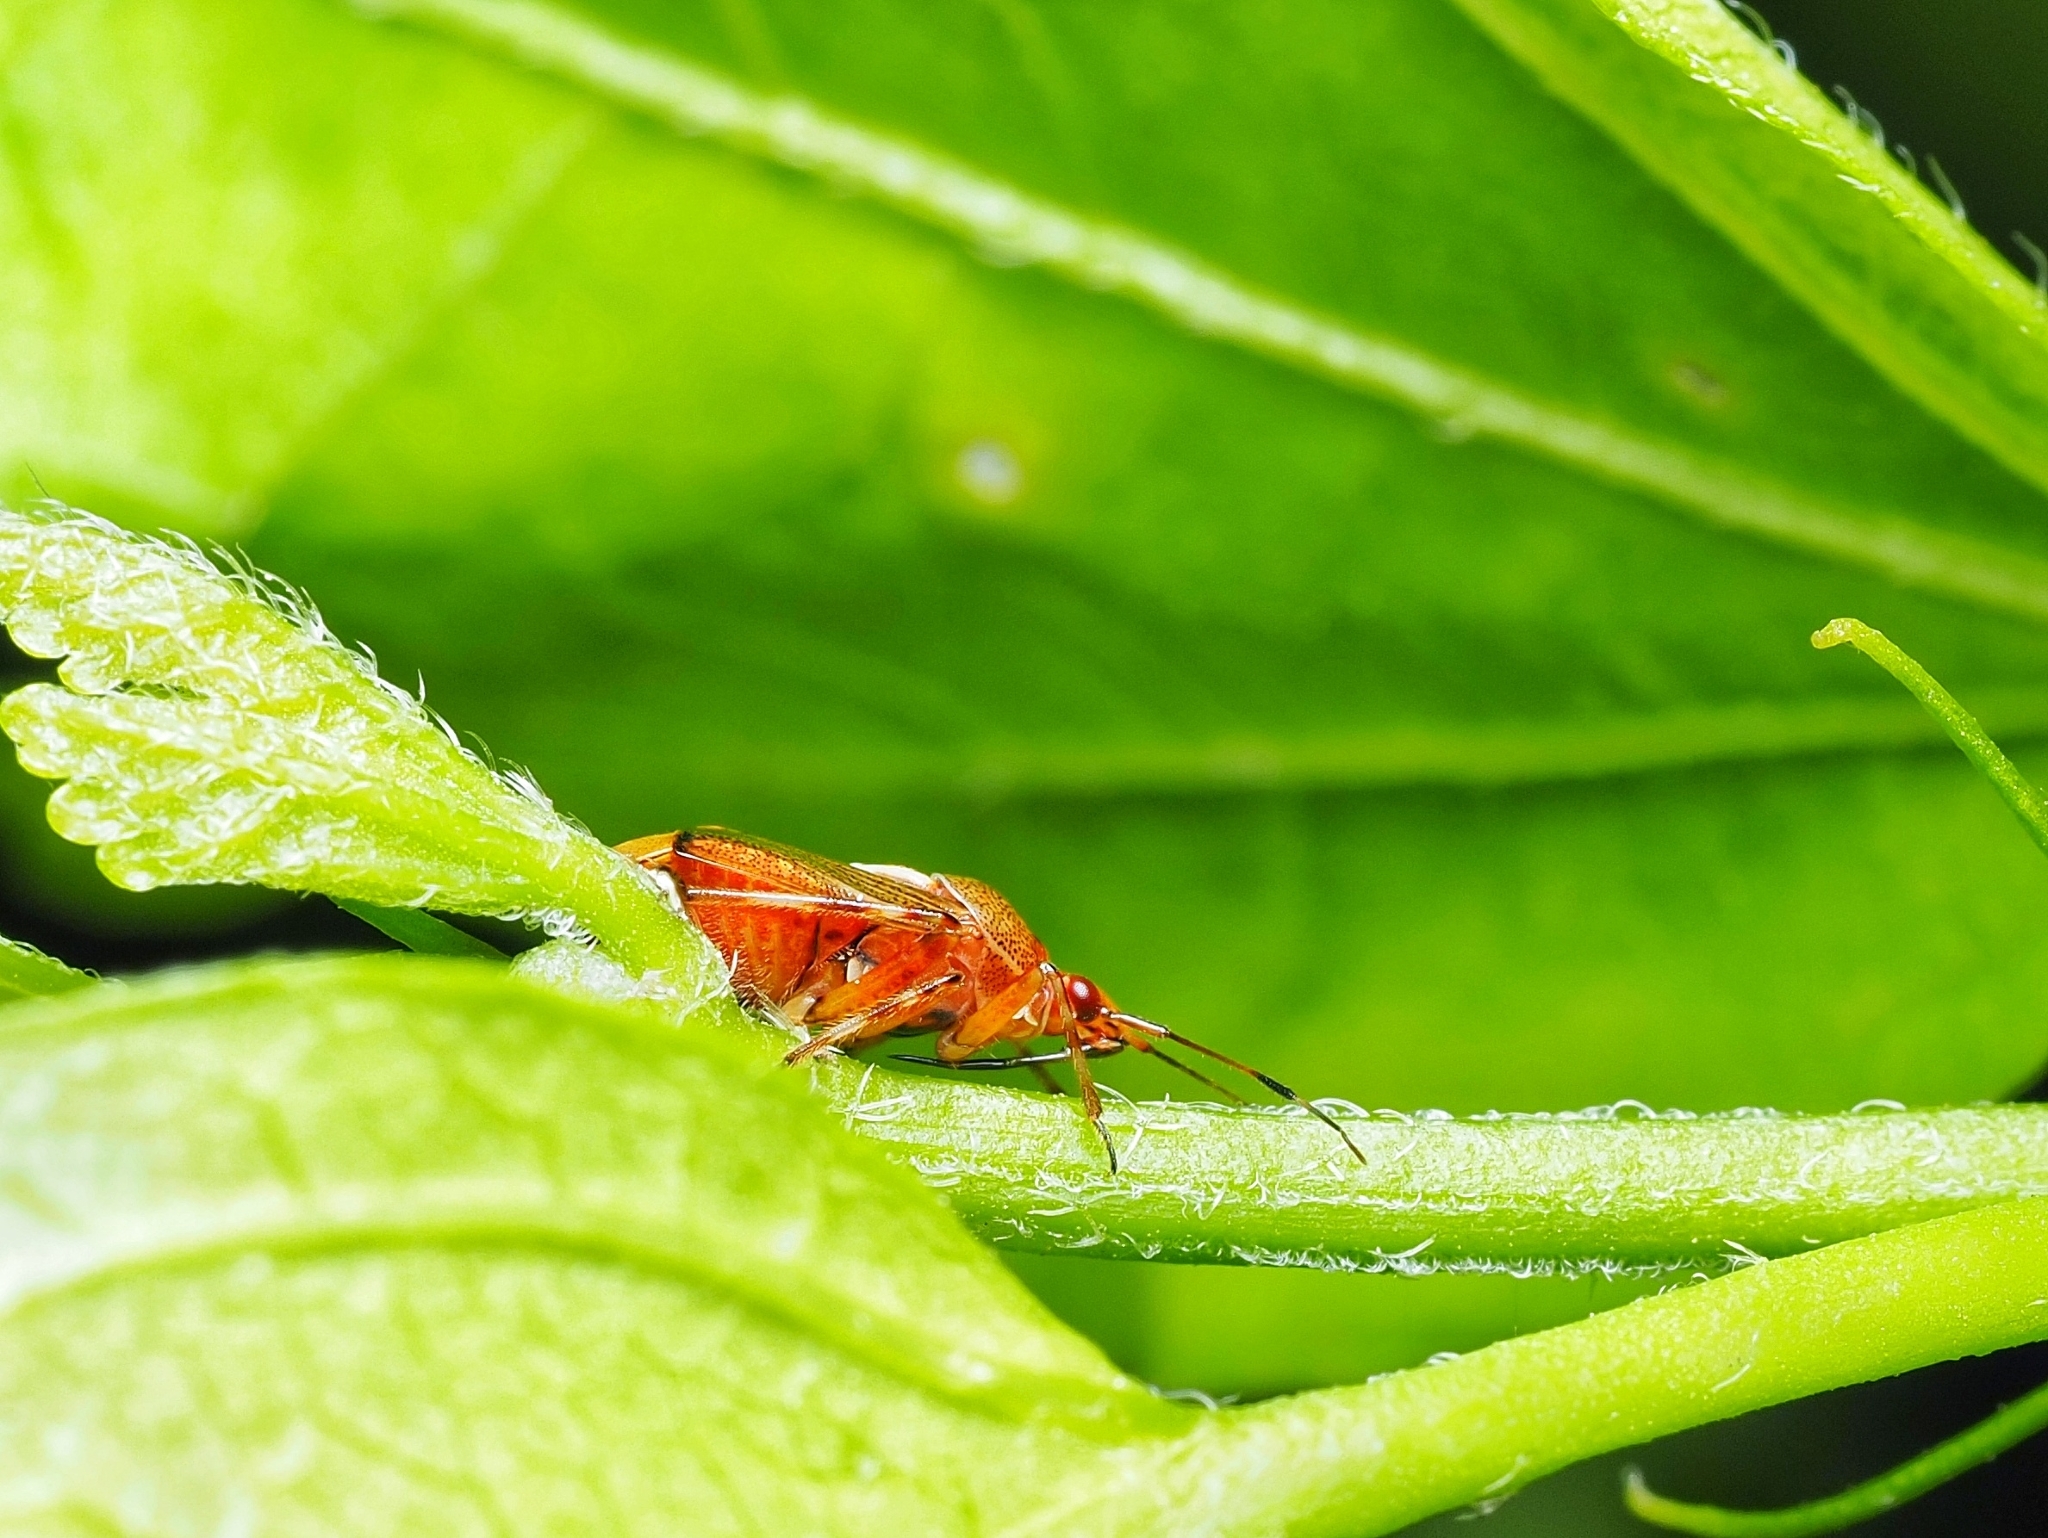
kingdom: Animalia
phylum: Arthropoda
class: Insecta
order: Hemiptera
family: Miridae
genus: Deraeocoris
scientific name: Deraeocoris flavilinea
